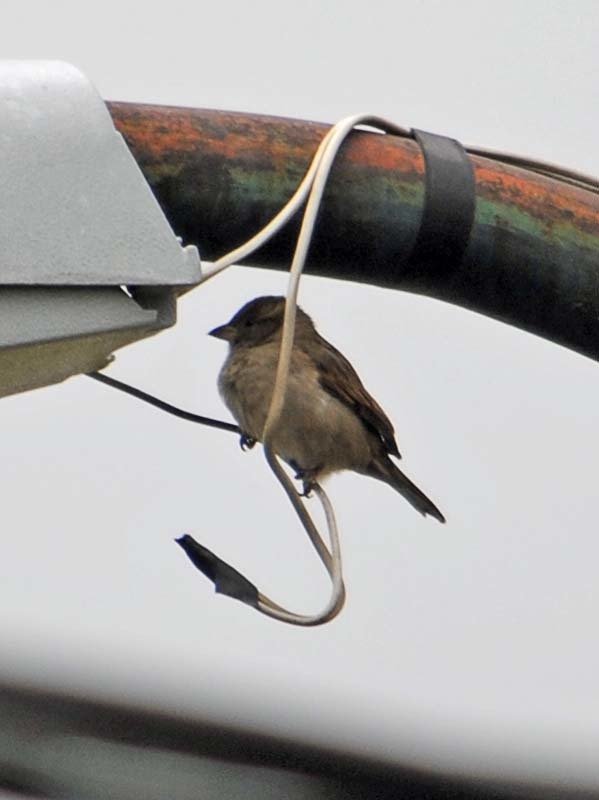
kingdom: Animalia
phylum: Chordata
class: Aves
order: Passeriformes
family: Passeridae
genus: Passer
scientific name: Passer domesticus
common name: House sparrow
